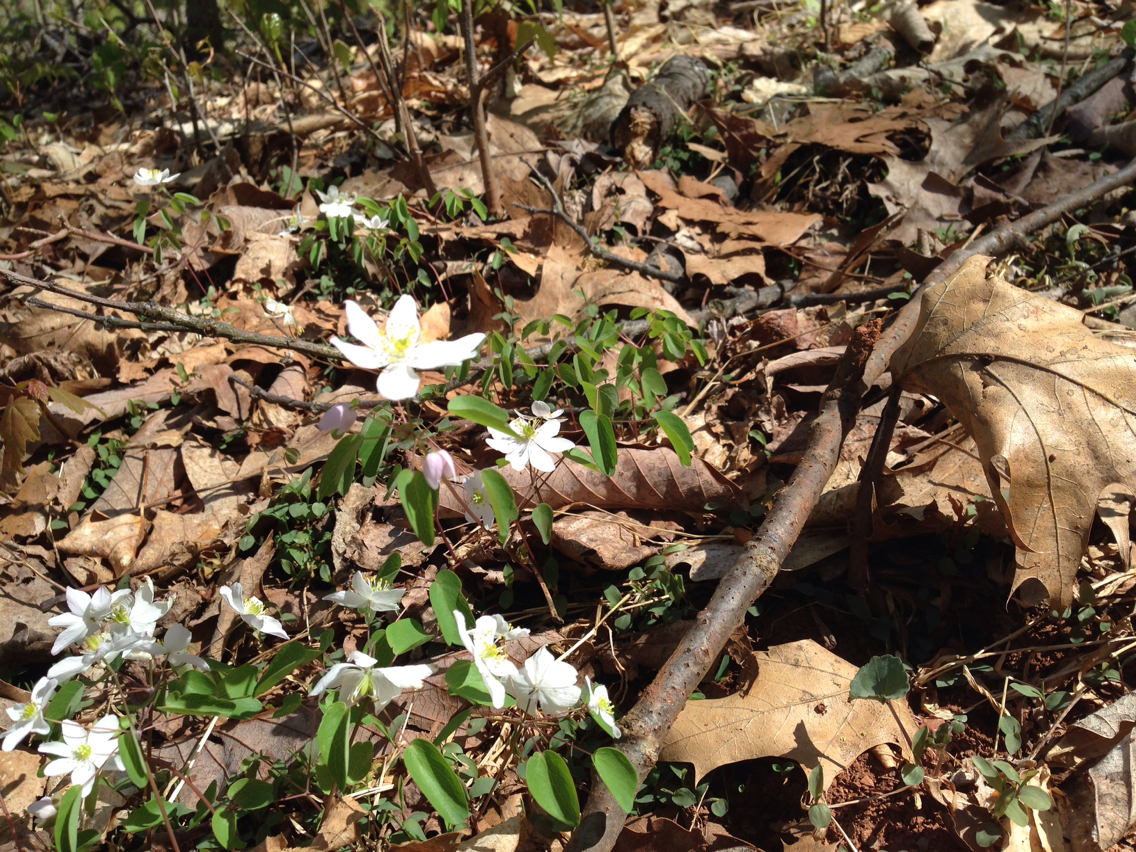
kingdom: Plantae
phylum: Tracheophyta
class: Magnoliopsida
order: Ranunculales
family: Ranunculaceae
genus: Thalictrum
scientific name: Thalictrum thalictroides
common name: Rue-anemone
